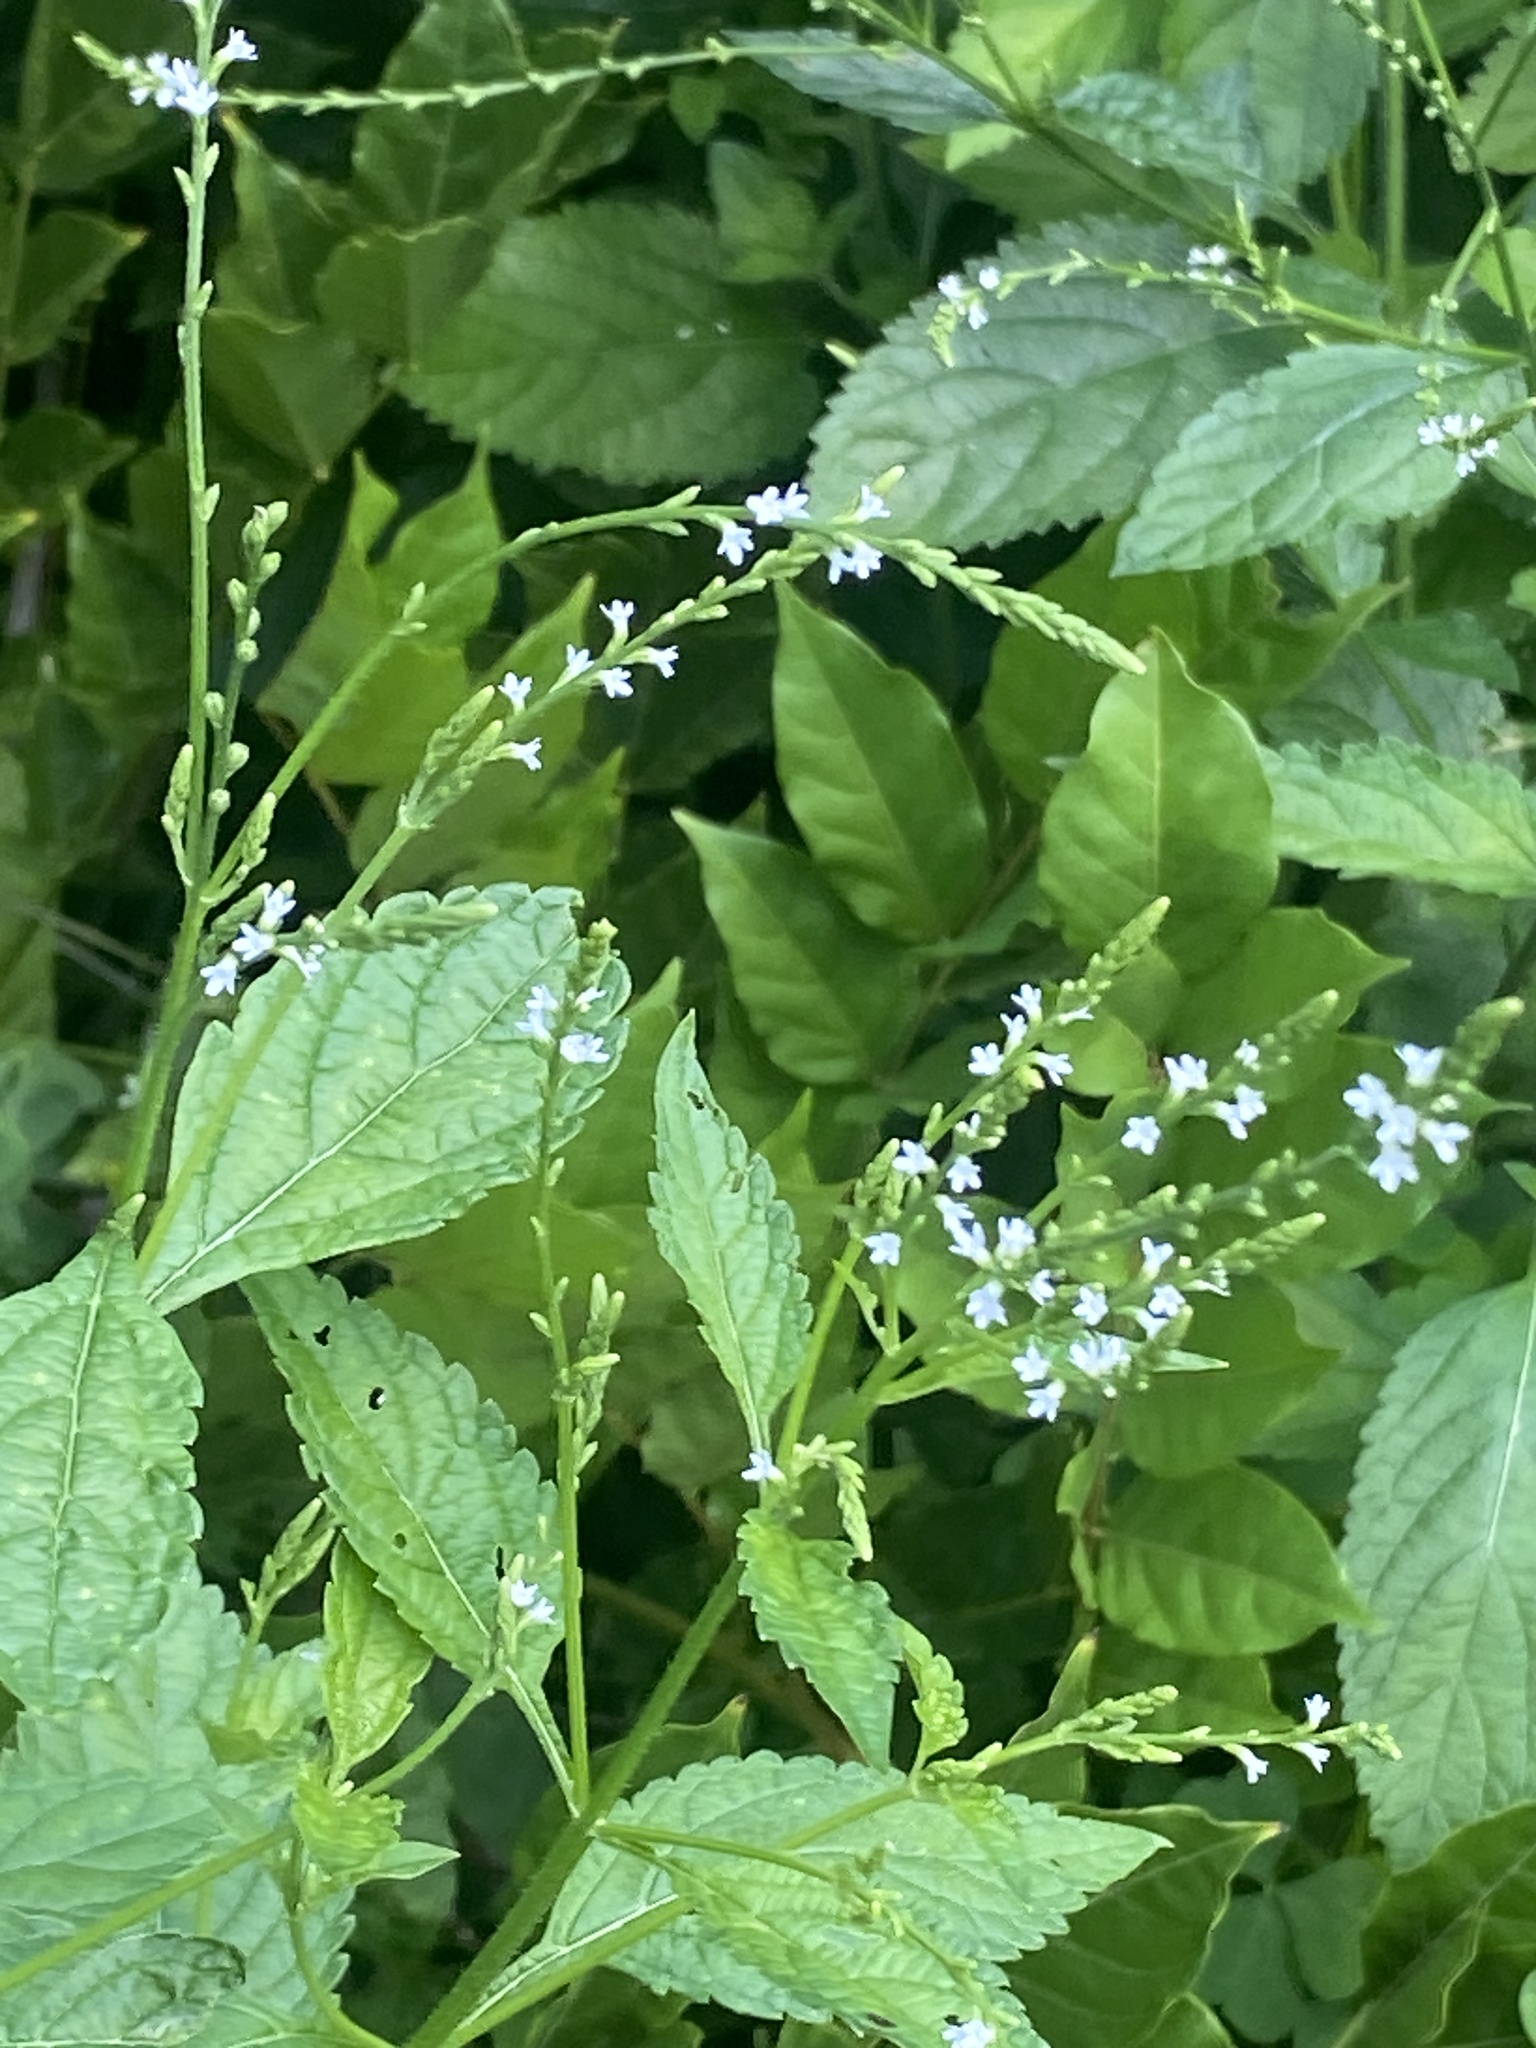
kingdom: Plantae
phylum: Tracheophyta
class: Magnoliopsida
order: Lamiales
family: Verbenaceae
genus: Verbena
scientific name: Verbena urticifolia
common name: Nettle-leaved vervain
